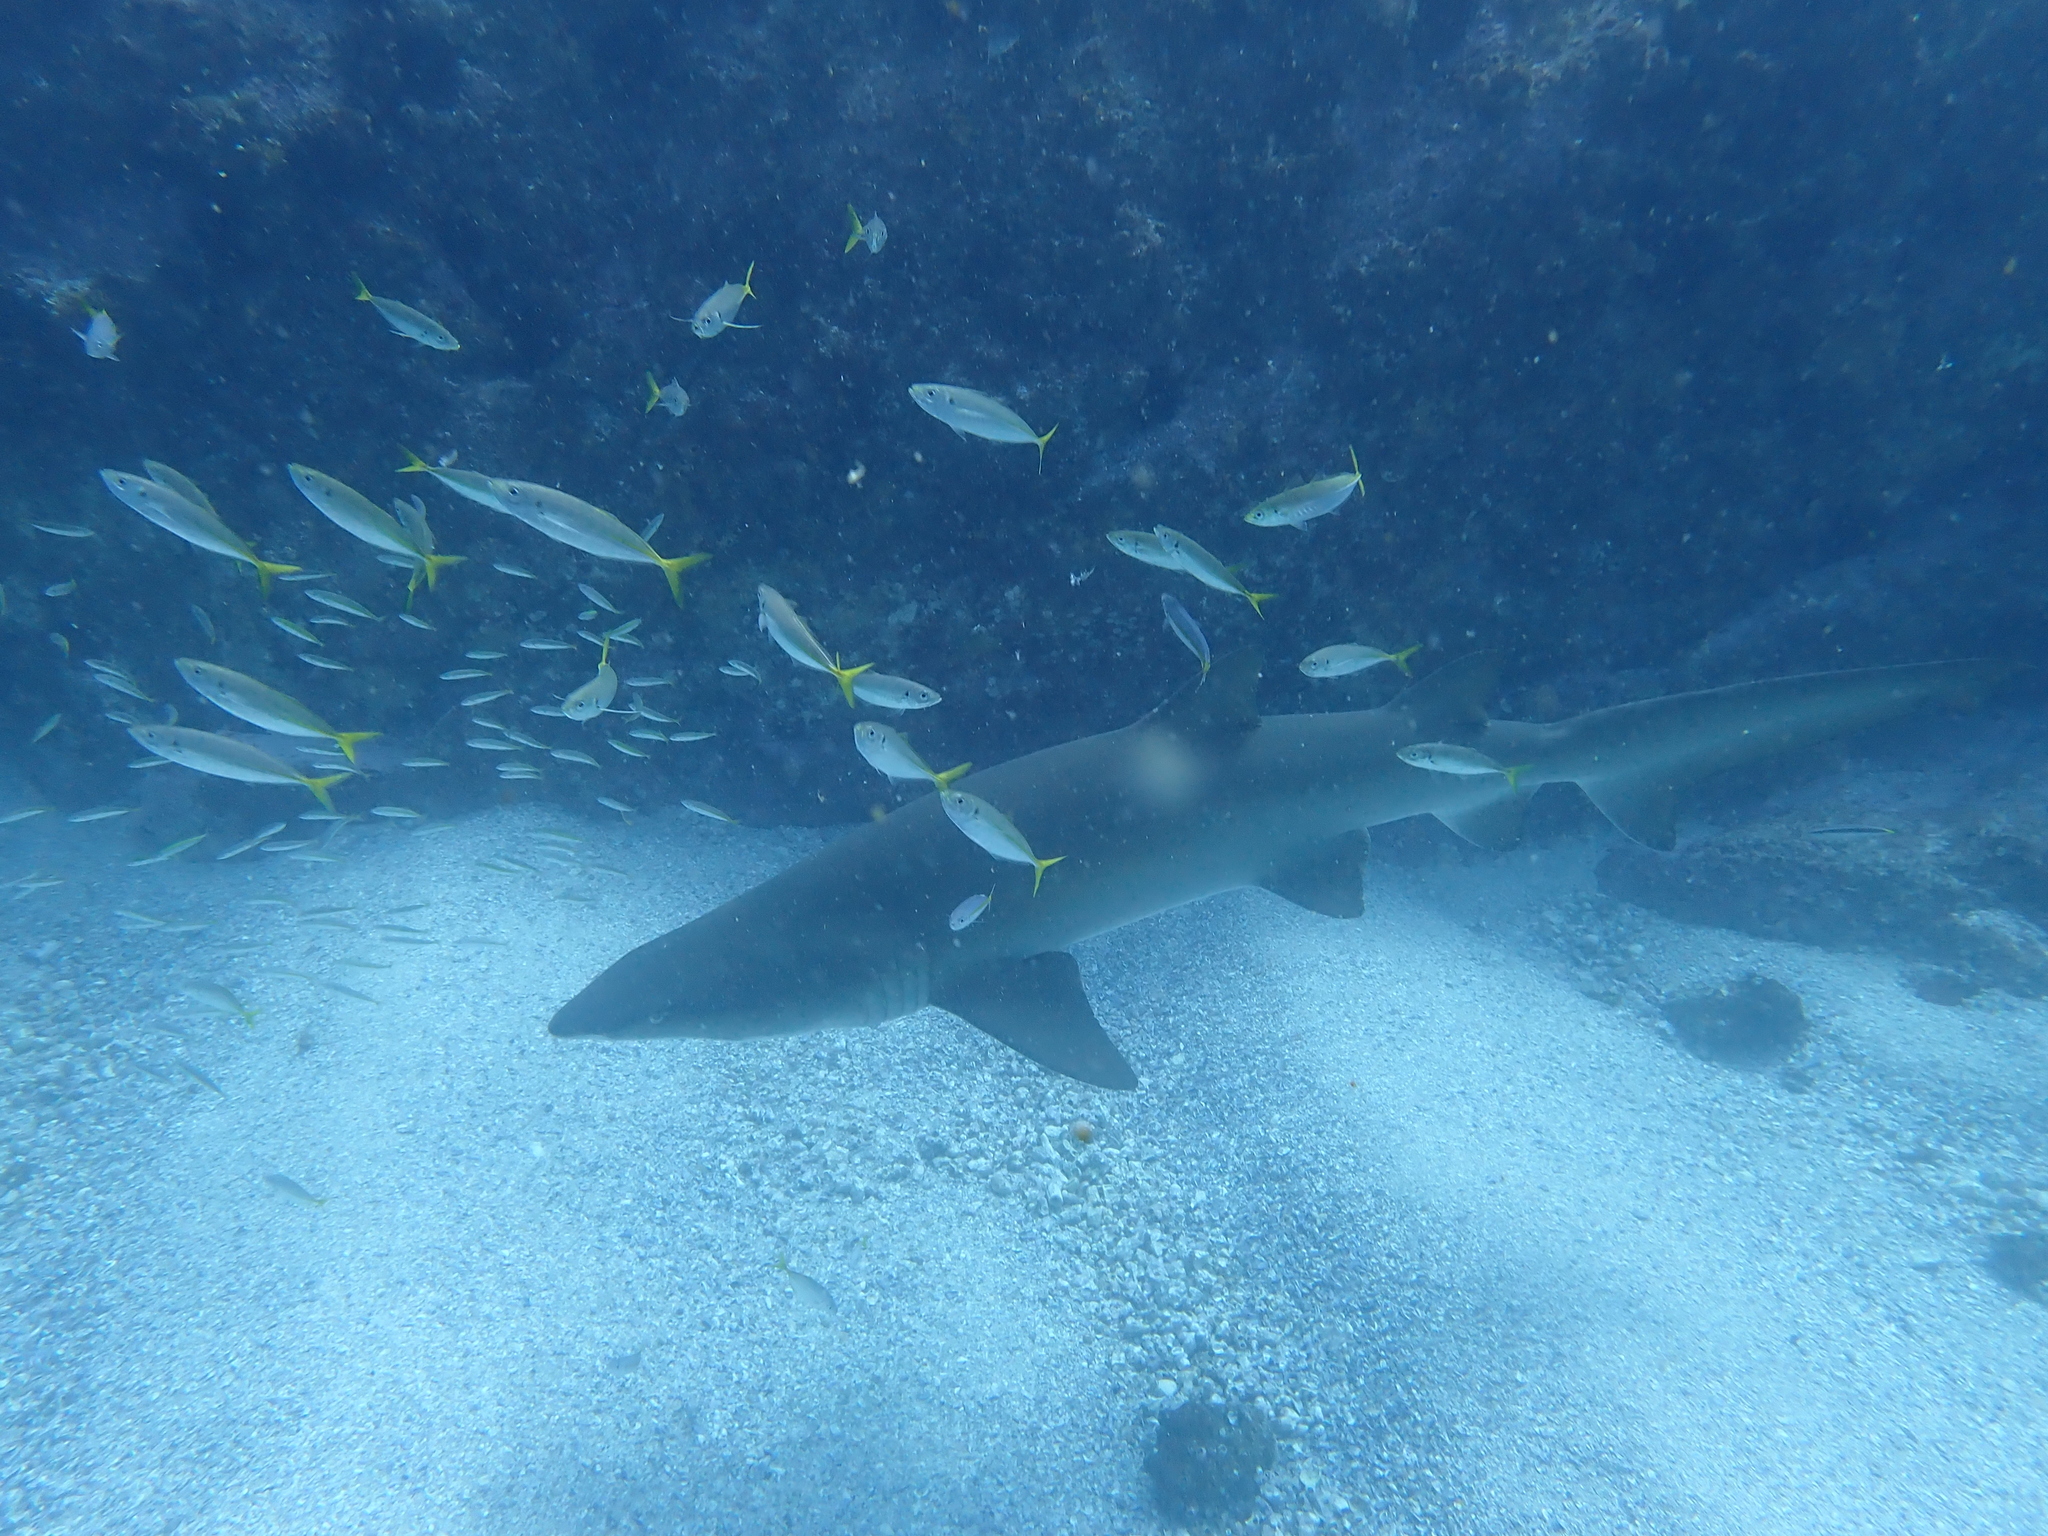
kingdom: Animalia
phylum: Chordata
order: Perciformes
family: Monodactylidae
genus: Schuettea
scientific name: Schuettea scalaripinnis
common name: Eastern pomfred
